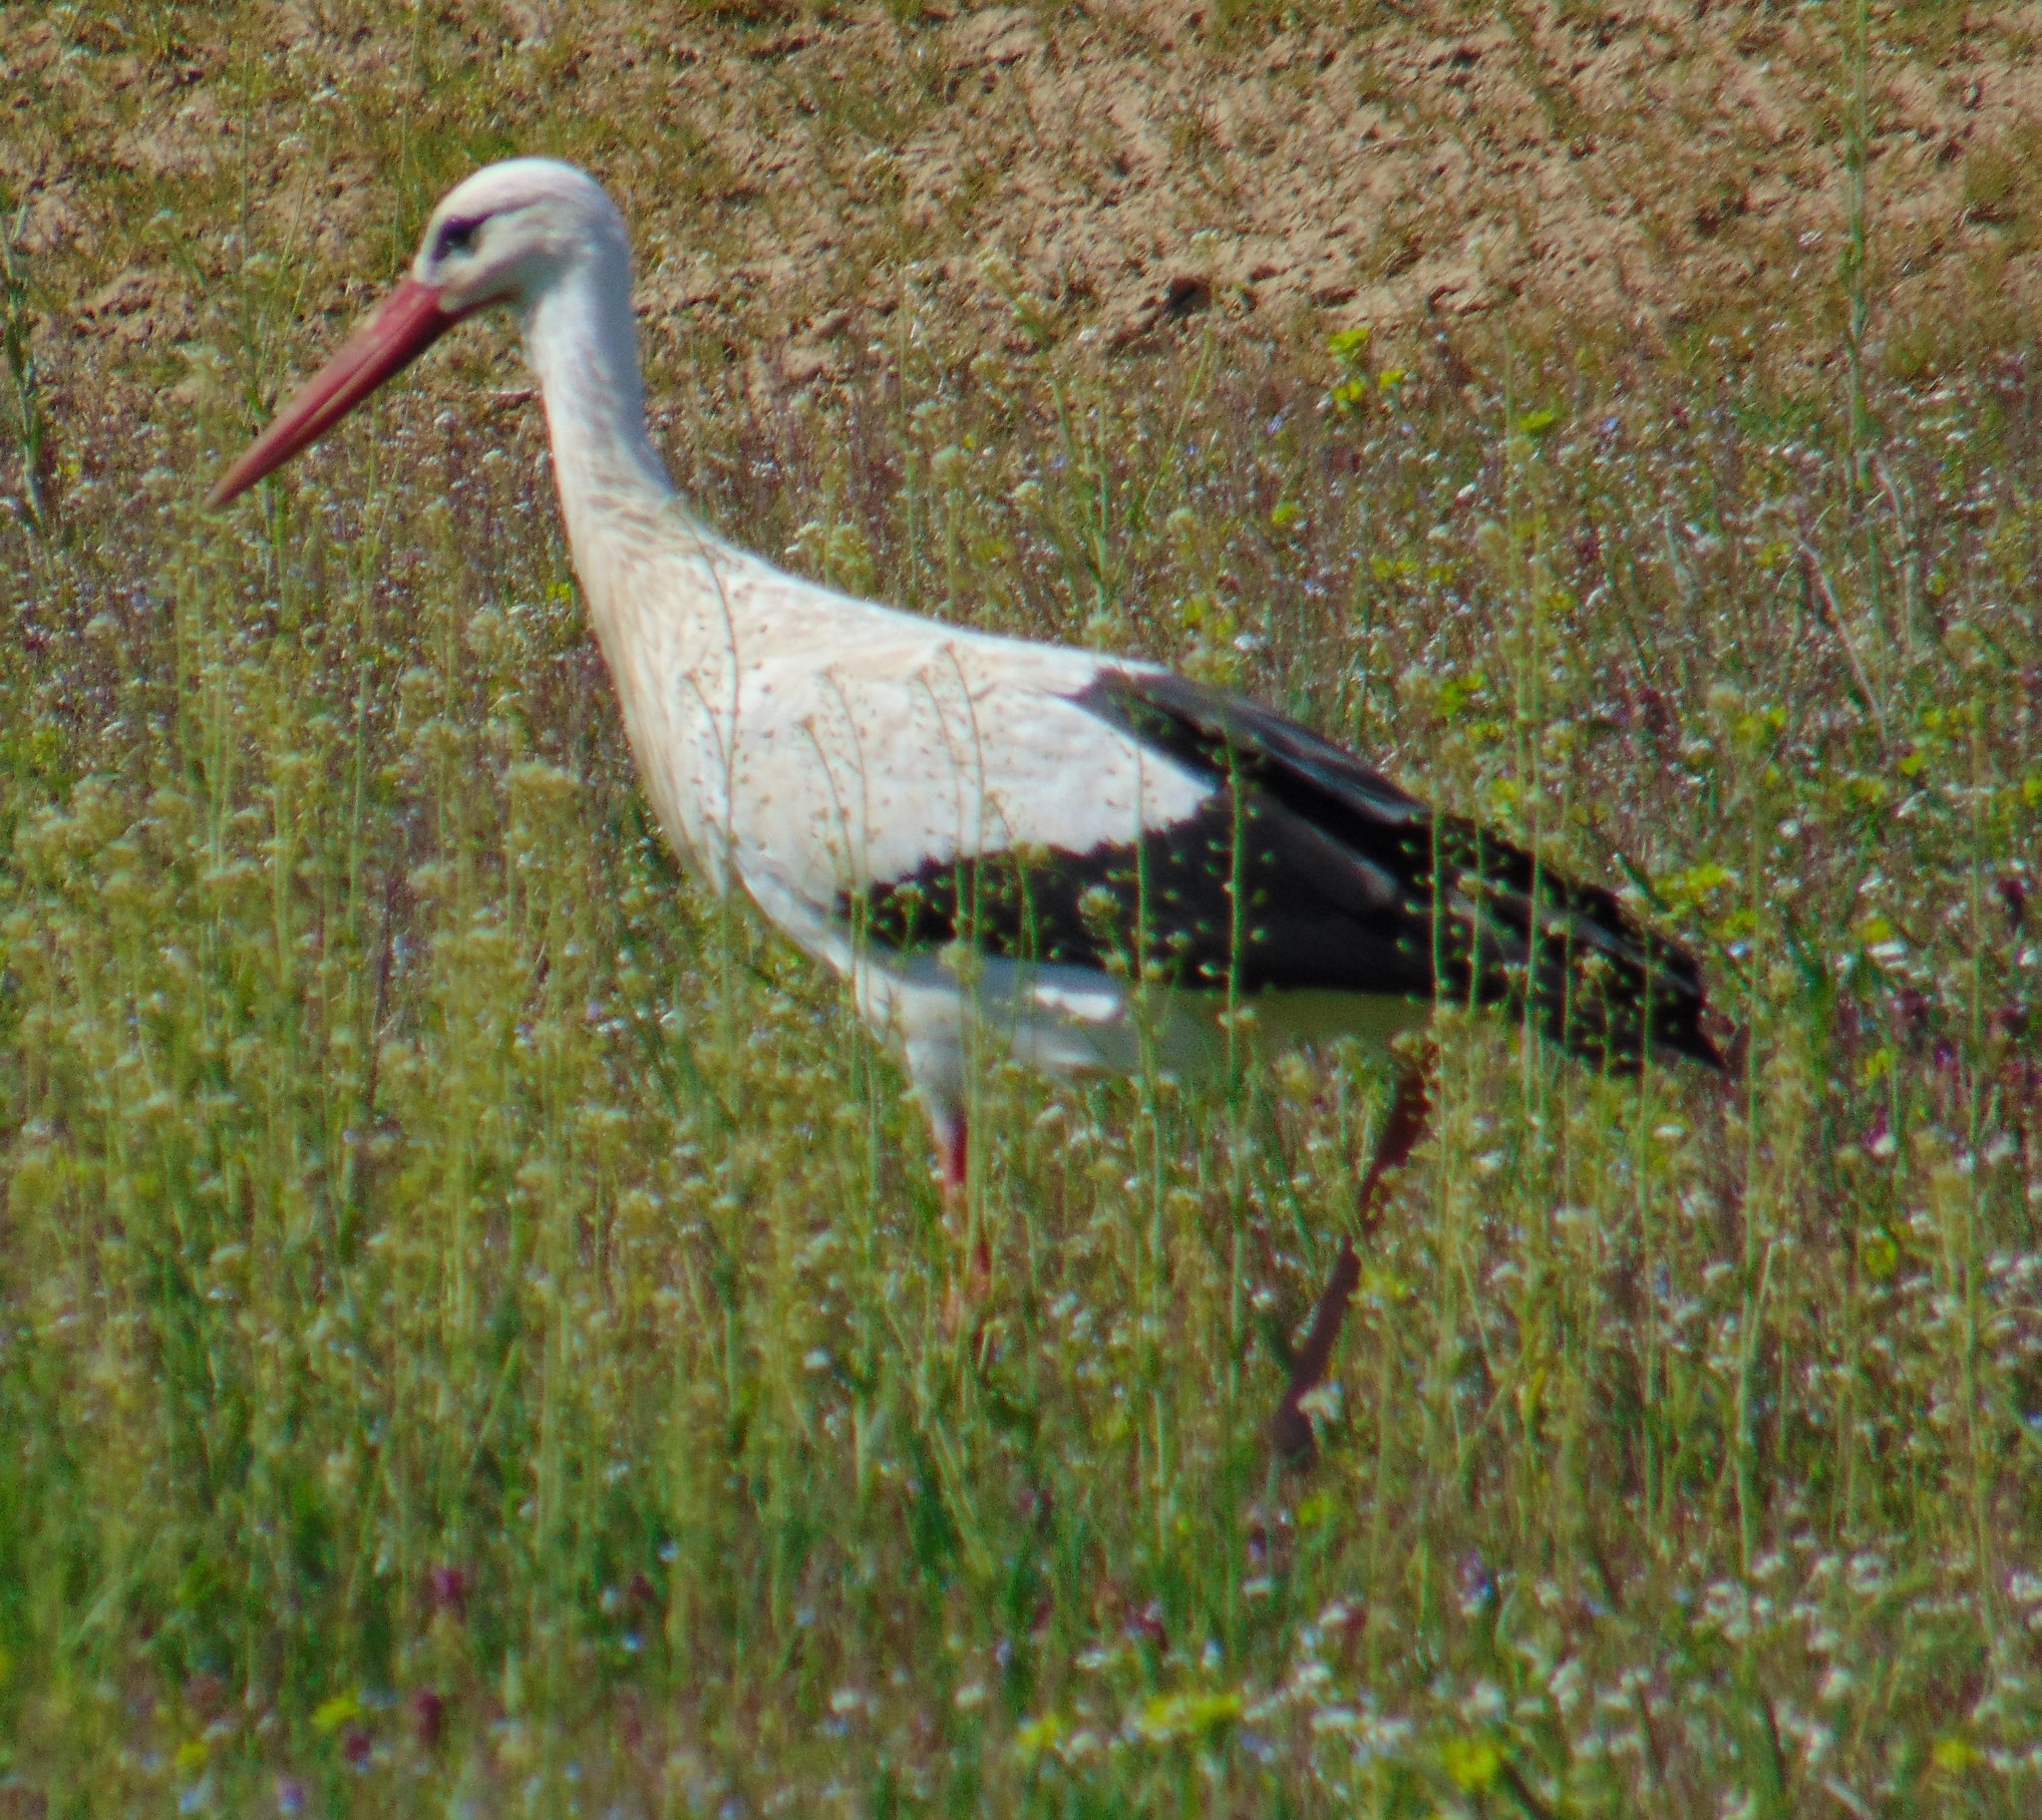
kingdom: Animalia
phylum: Chordata
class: Aves
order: Ciconiiformes
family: Ciconiidae
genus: Ciconia
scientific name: Ciconia ciconia
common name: White stork
